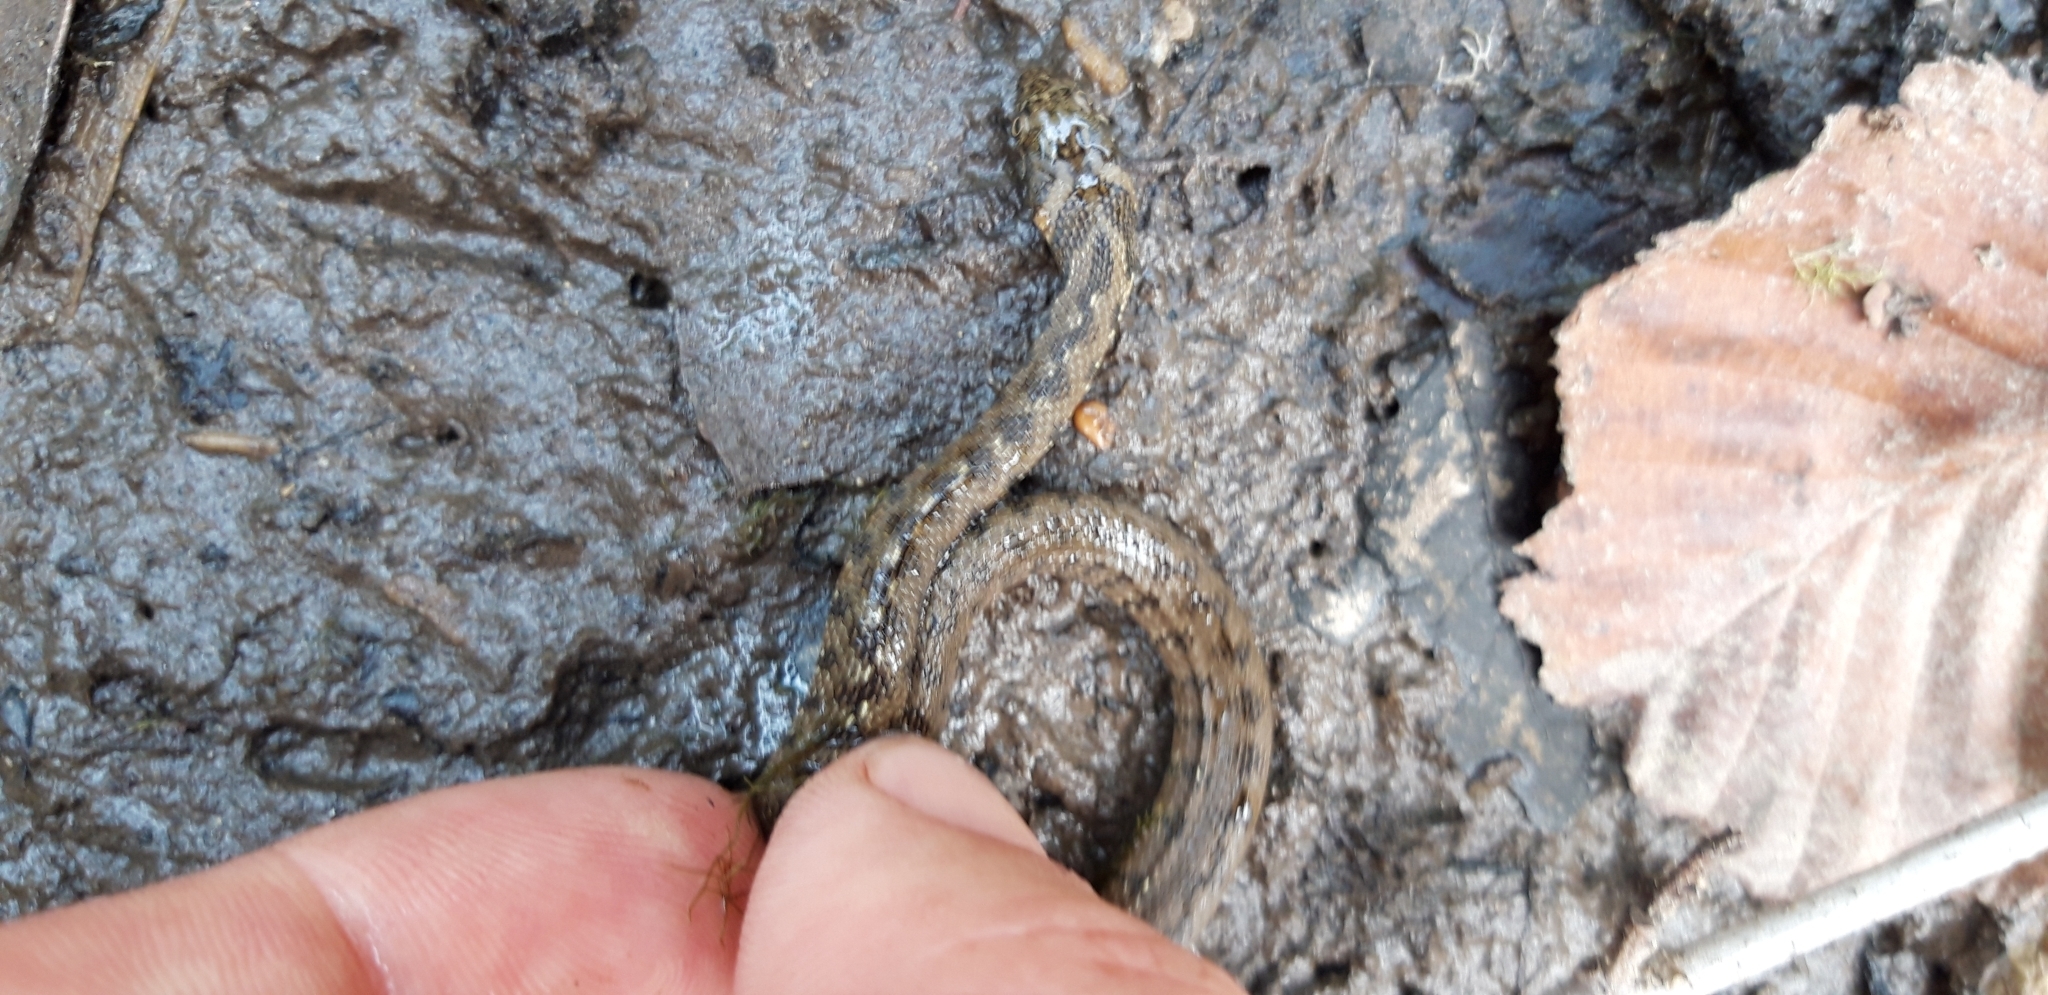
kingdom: Animalia
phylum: Chordata
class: Squamata
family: Colubridae
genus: Natrix
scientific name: Natrix maura
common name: Viperine water snake
